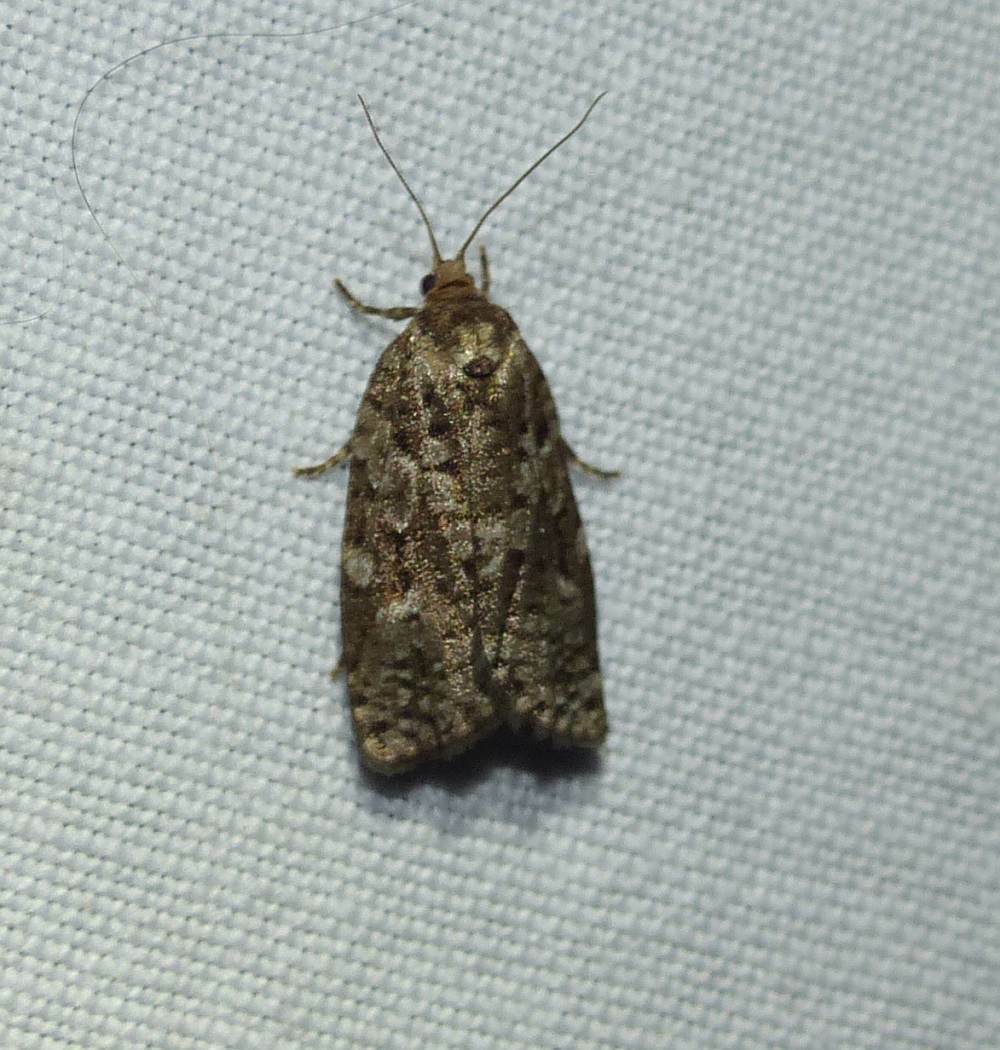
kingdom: Animalia
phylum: Arthropoda
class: Insecta
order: Lepidoptera
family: Tortricidae
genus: Choristoneura
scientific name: Choristoneura fumiferana
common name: Spruce budworm
